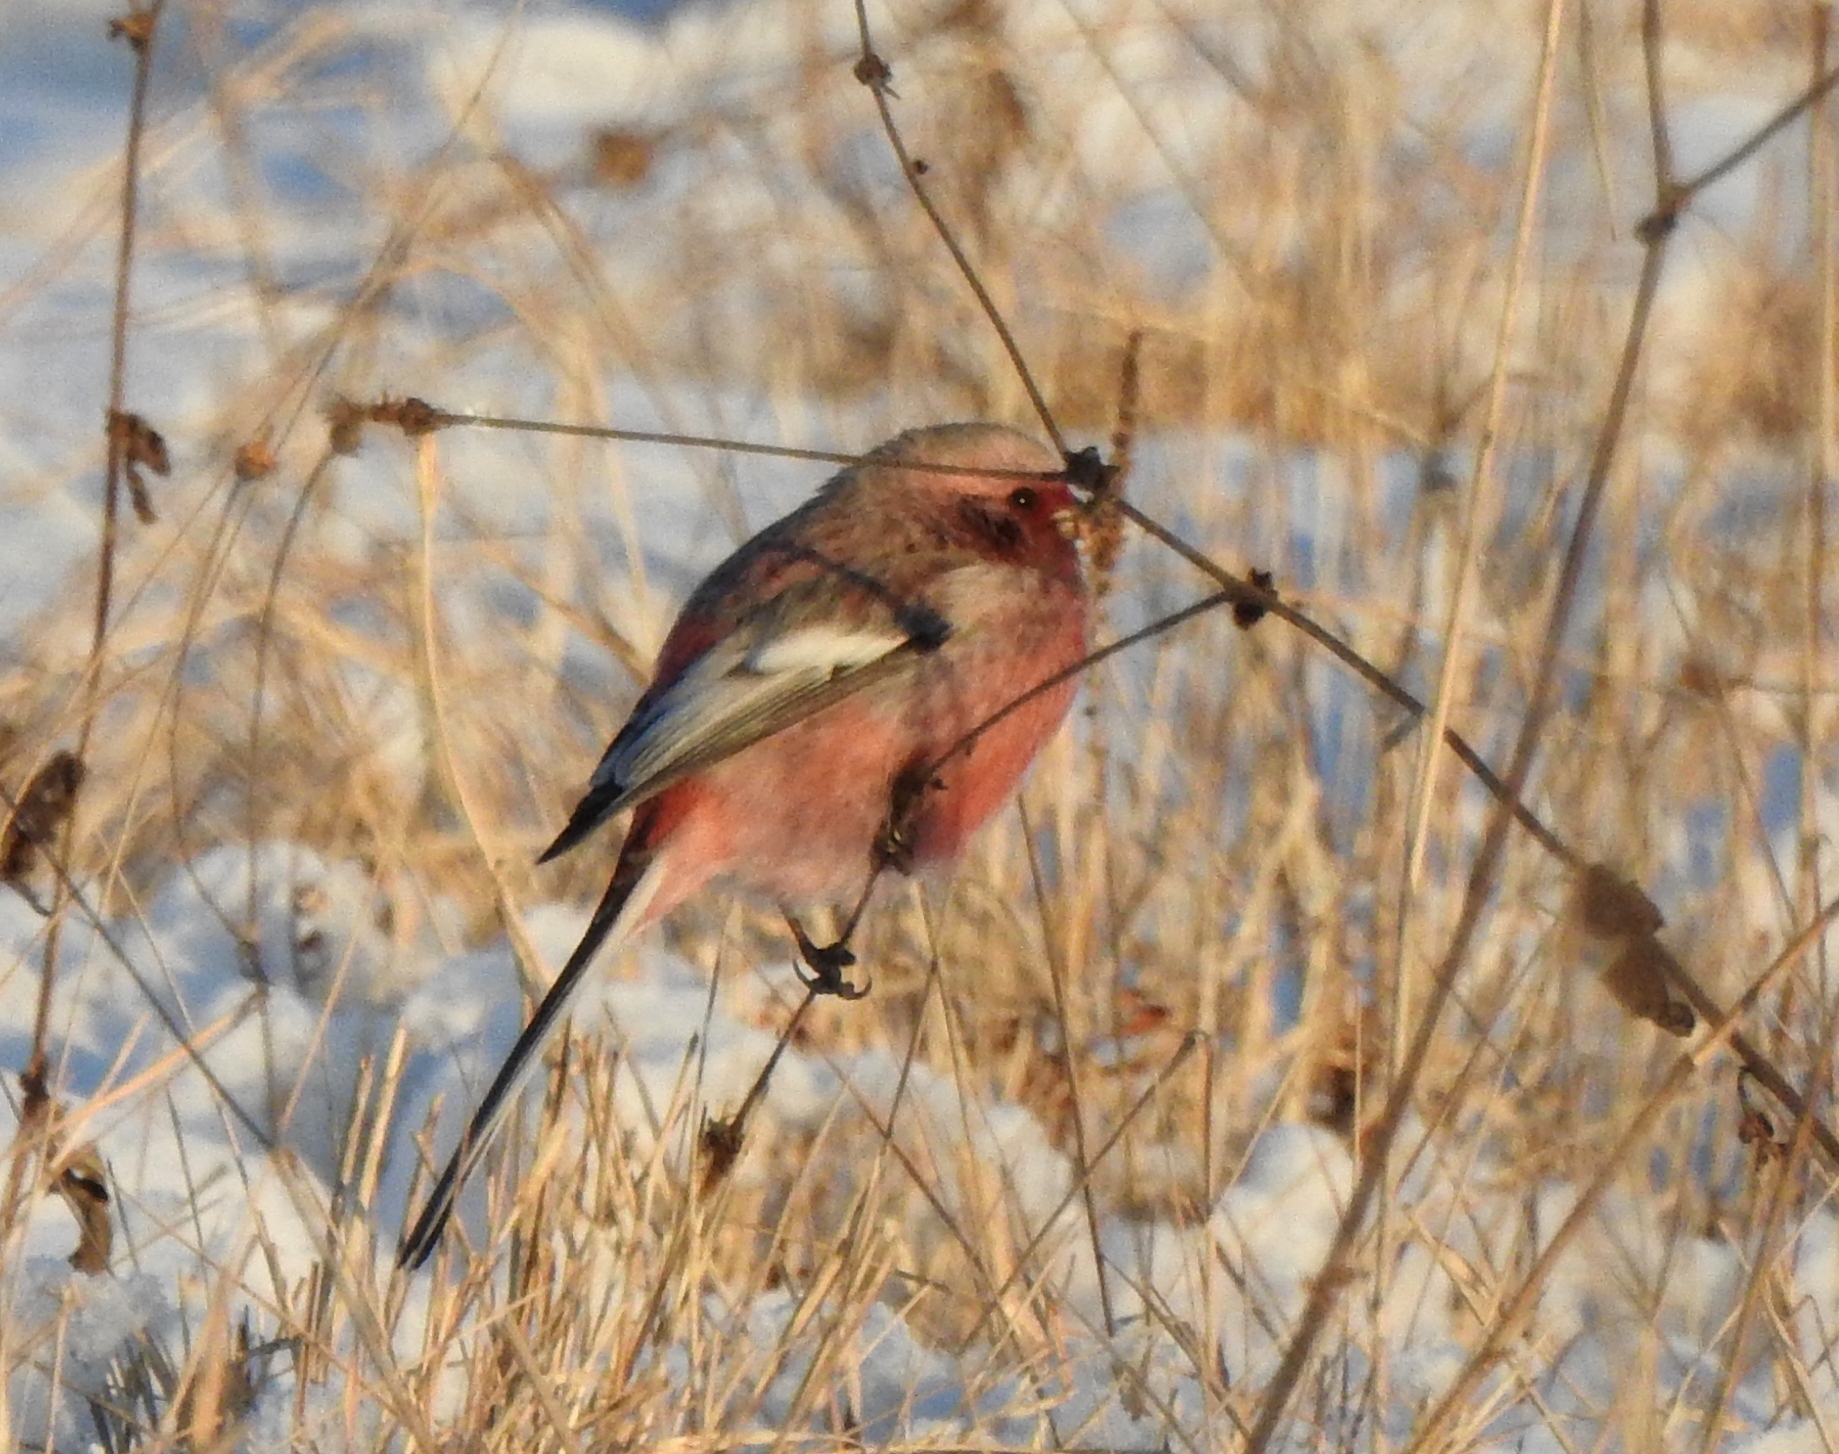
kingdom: Animalia
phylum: Chordata
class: Aves
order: Passeriformes
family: Fringillidae
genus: Carpodacus
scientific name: Carpodacus sibiricus
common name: Long-tailed rosefinch
